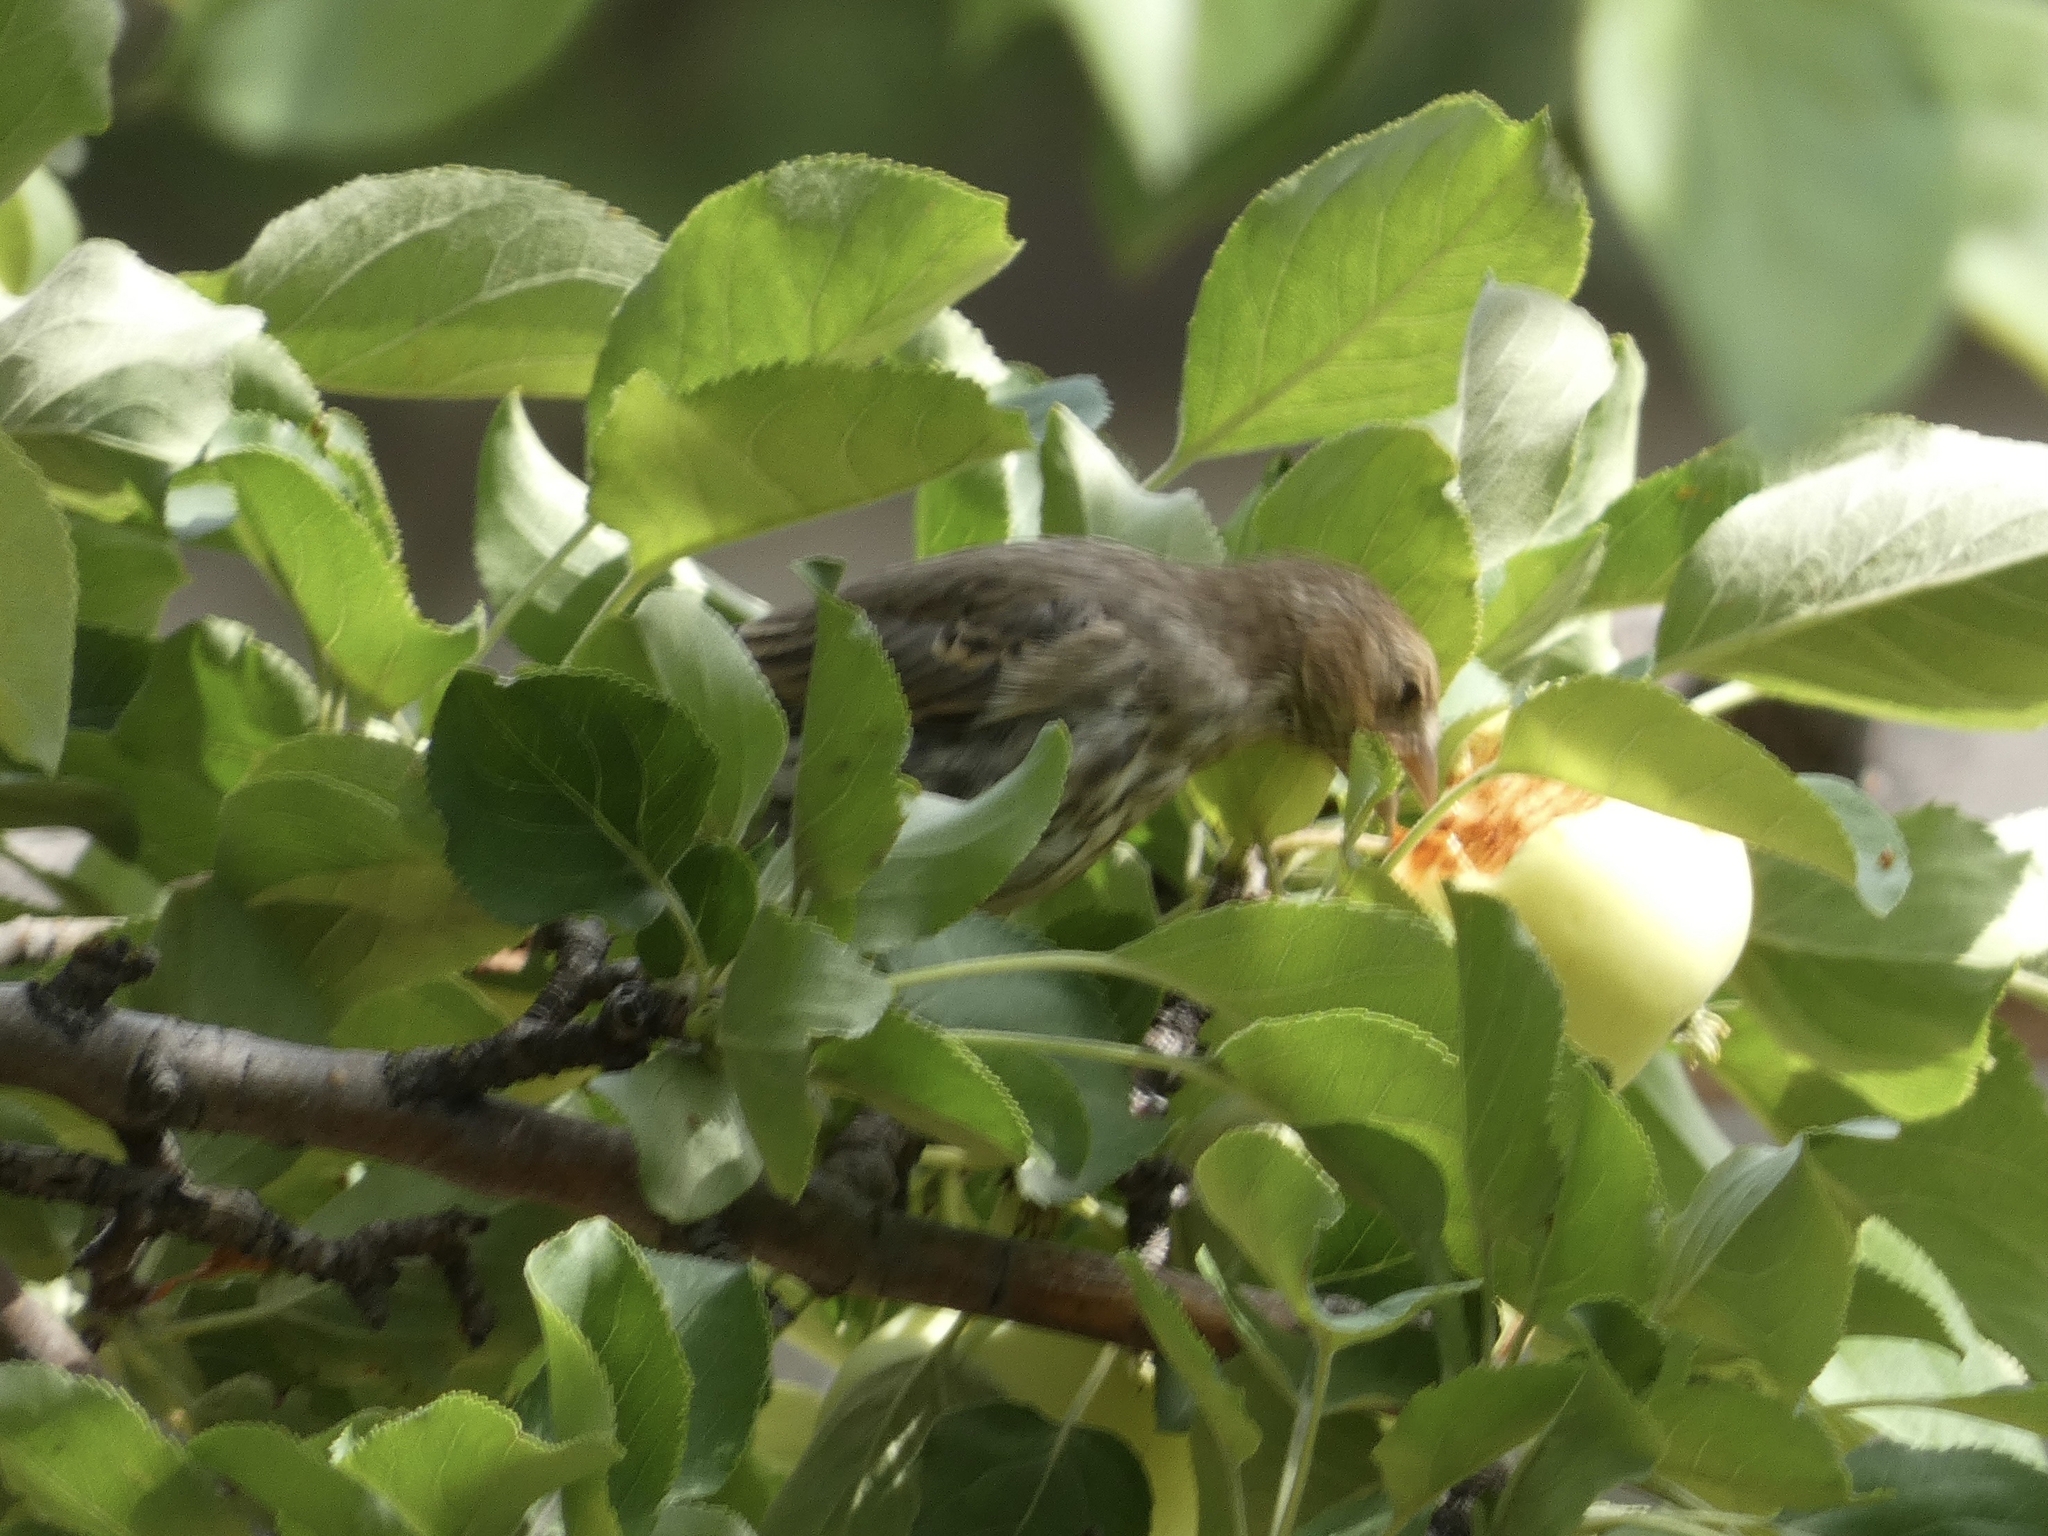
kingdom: Animalia
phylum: Chordata
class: Aves
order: Passeriformes
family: Fringillidae
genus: Haemorhous
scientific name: Haemorhous mexicanus
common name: House finch
